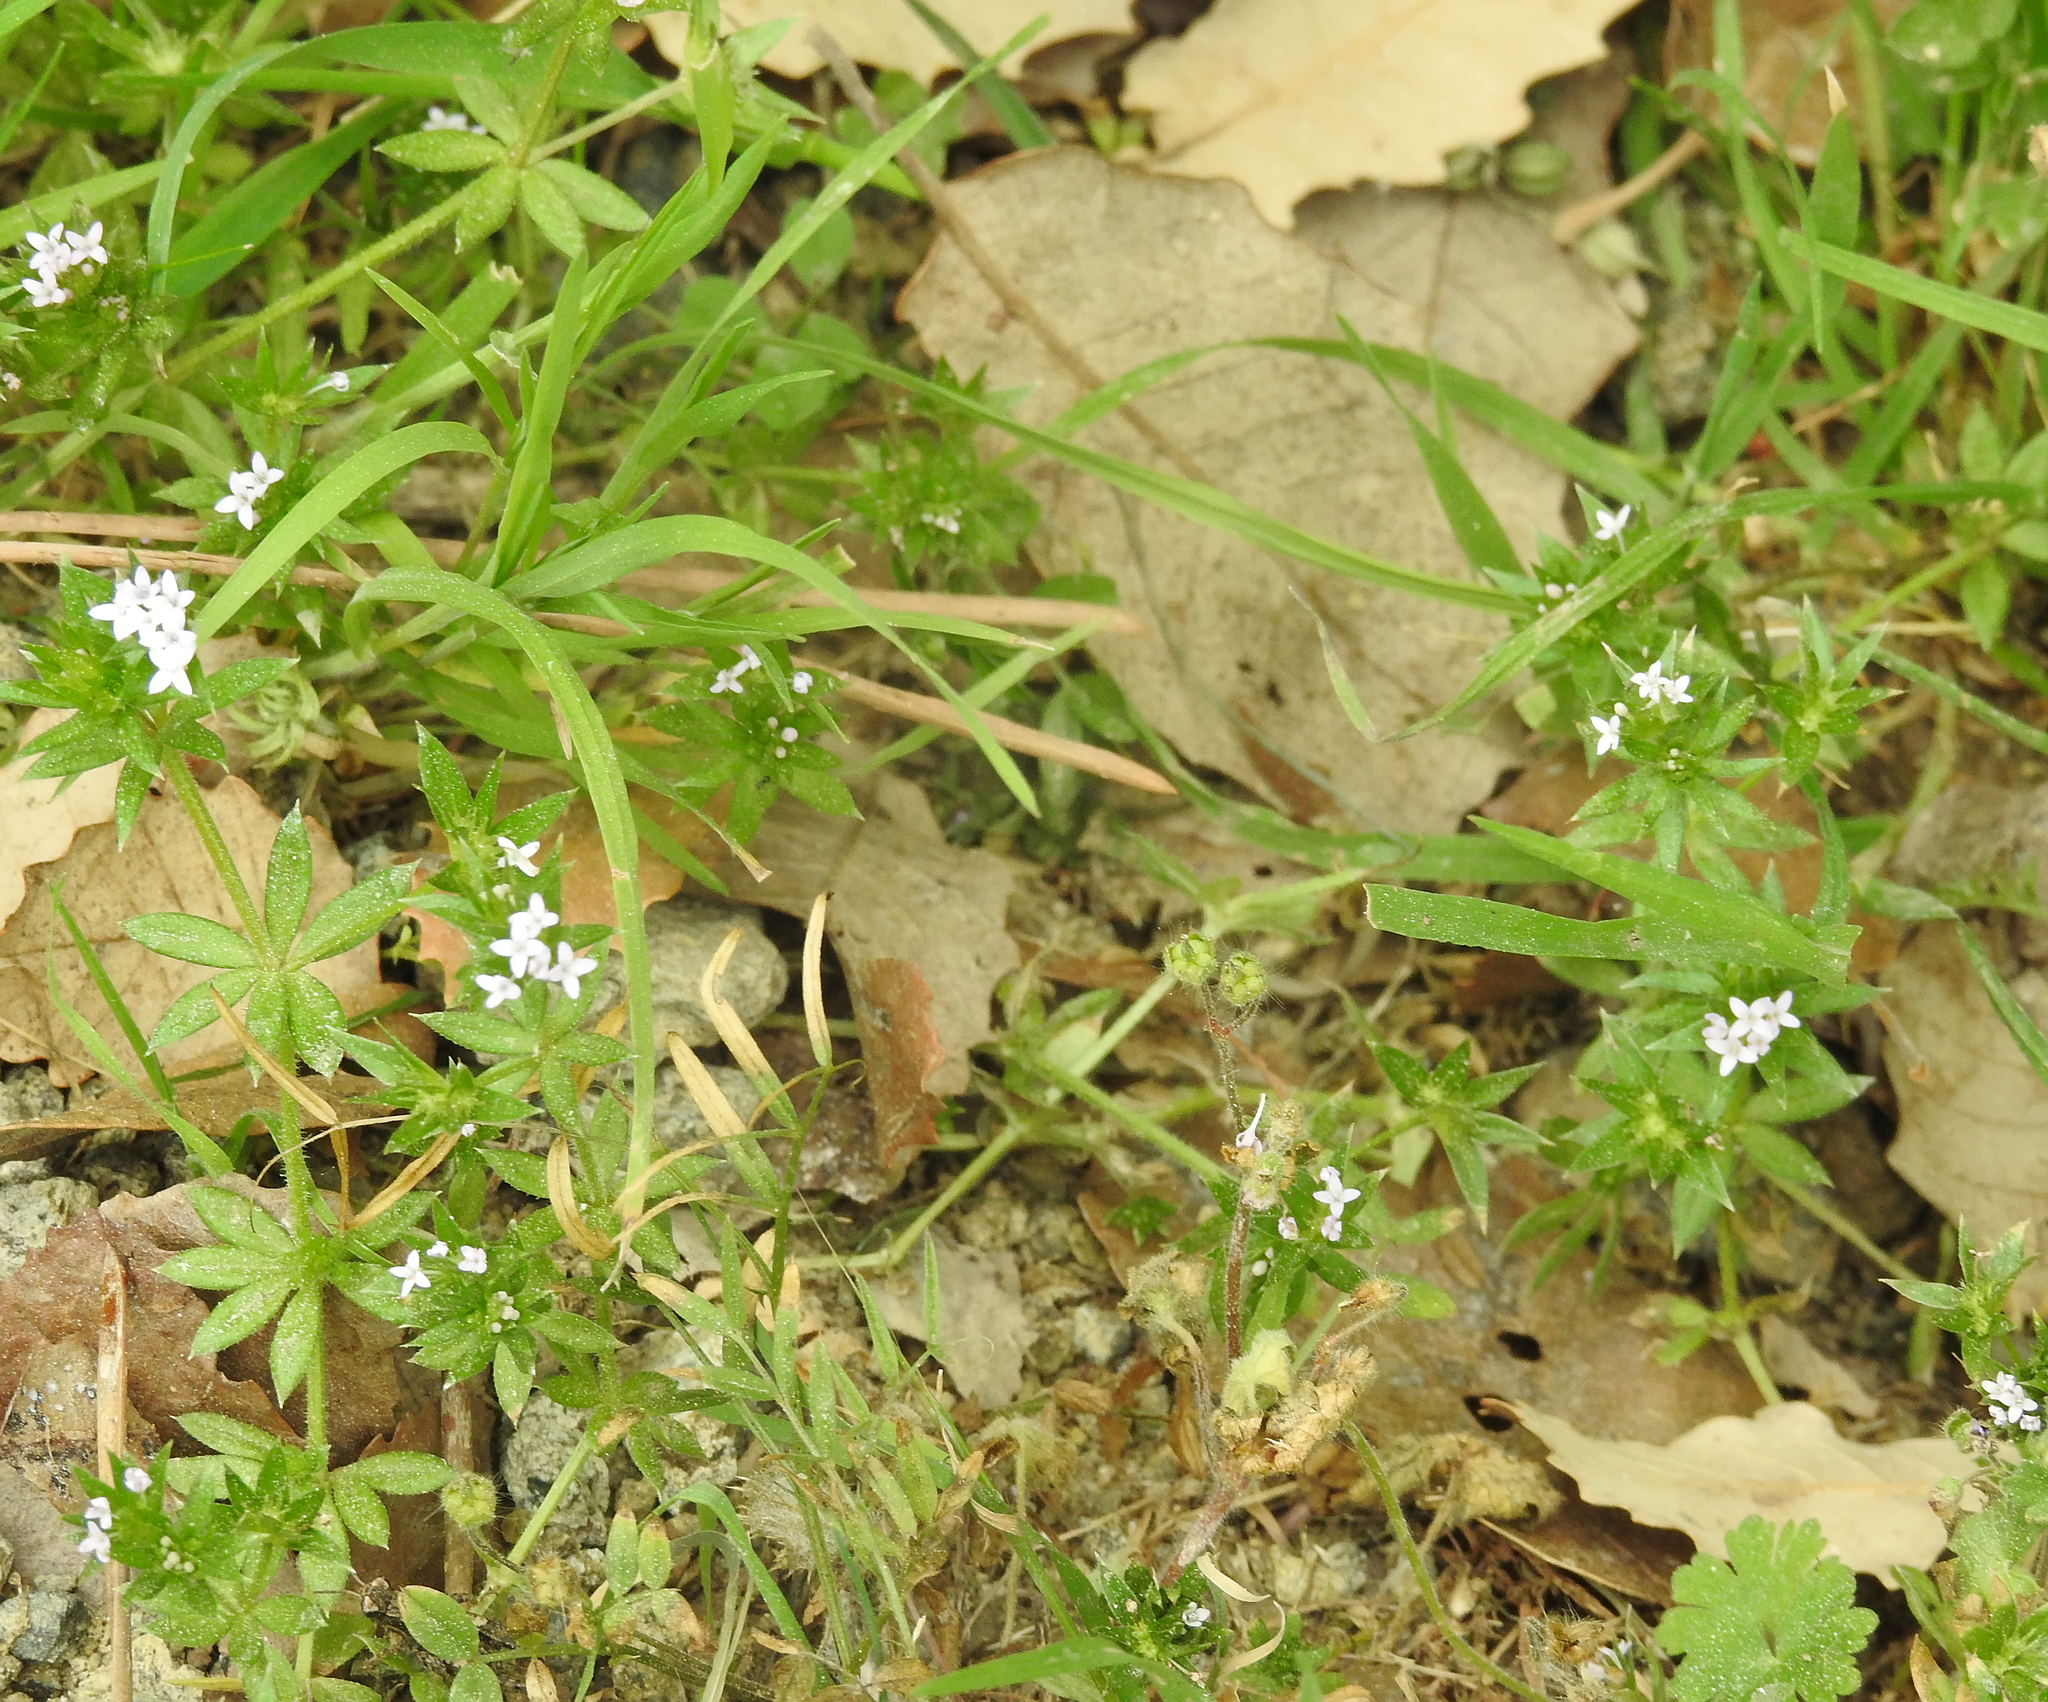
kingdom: Plantae
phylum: Tracheophyta
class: Magnoliopsida
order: Gentianales
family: Rubiaceae
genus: Sherardia
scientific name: Sherardia arvensis
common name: Field madder
